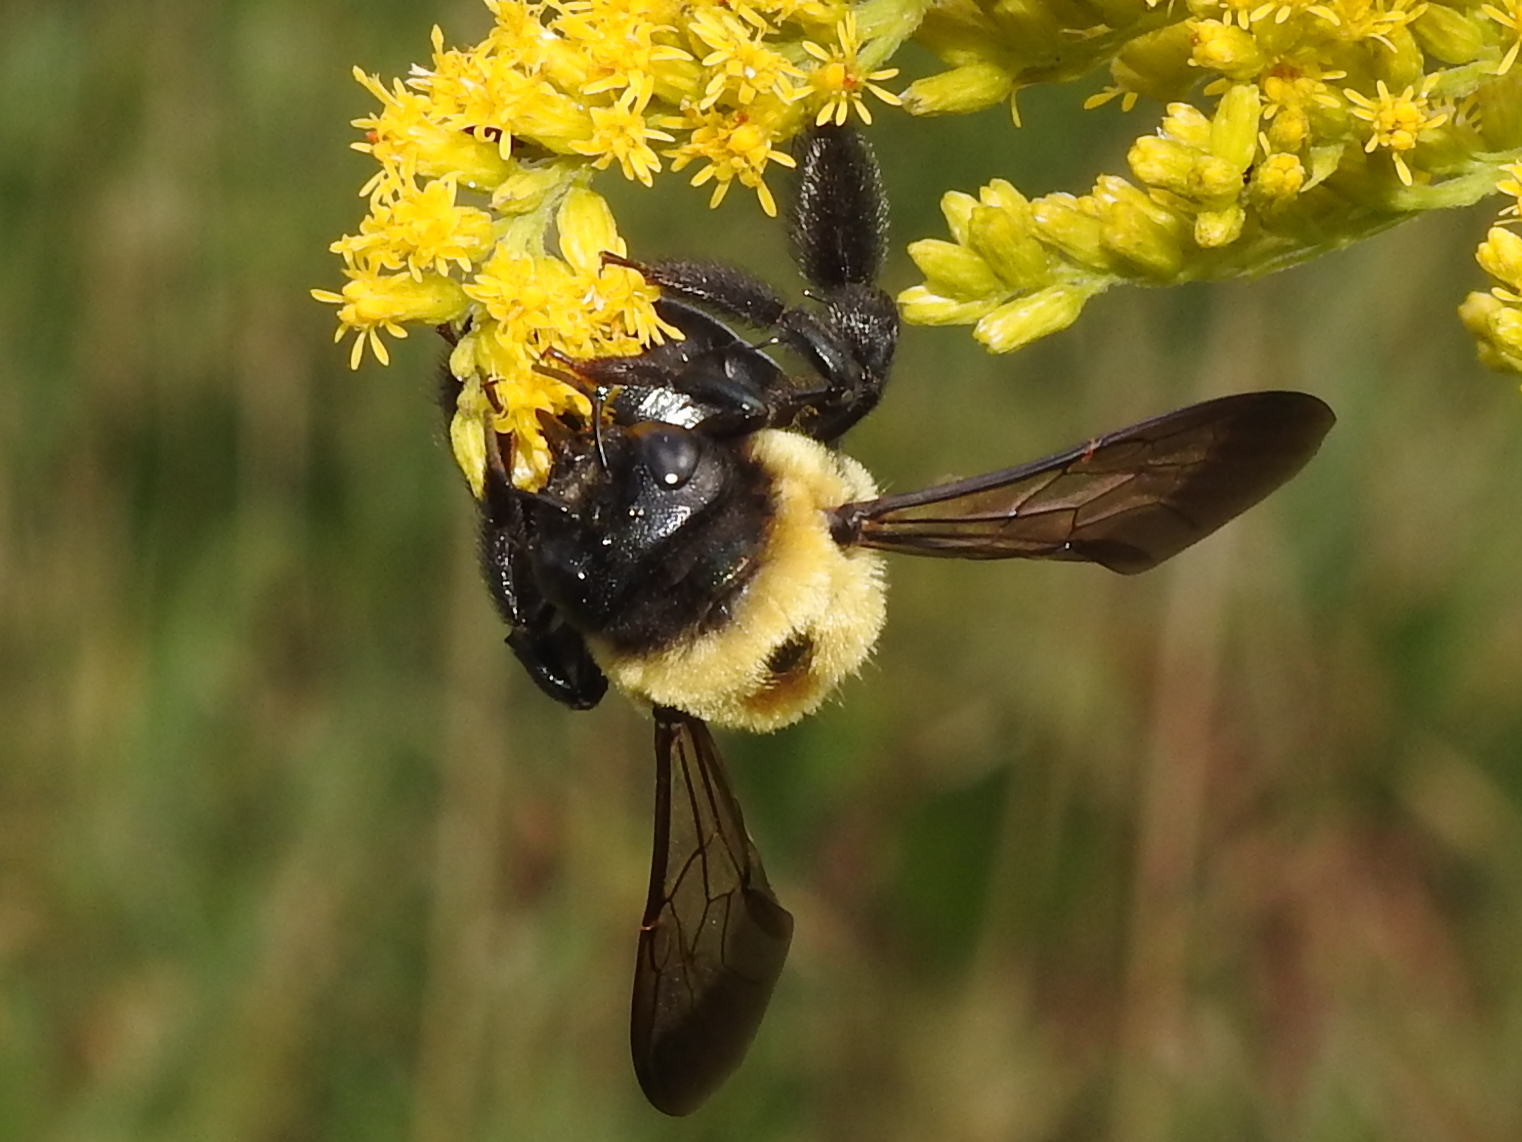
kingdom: Animalia
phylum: Arthropoda
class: Insecta
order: Hymenoptera
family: Apidae
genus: Xylocopa
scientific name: Xylocopa virginica
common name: Carpenter bee
